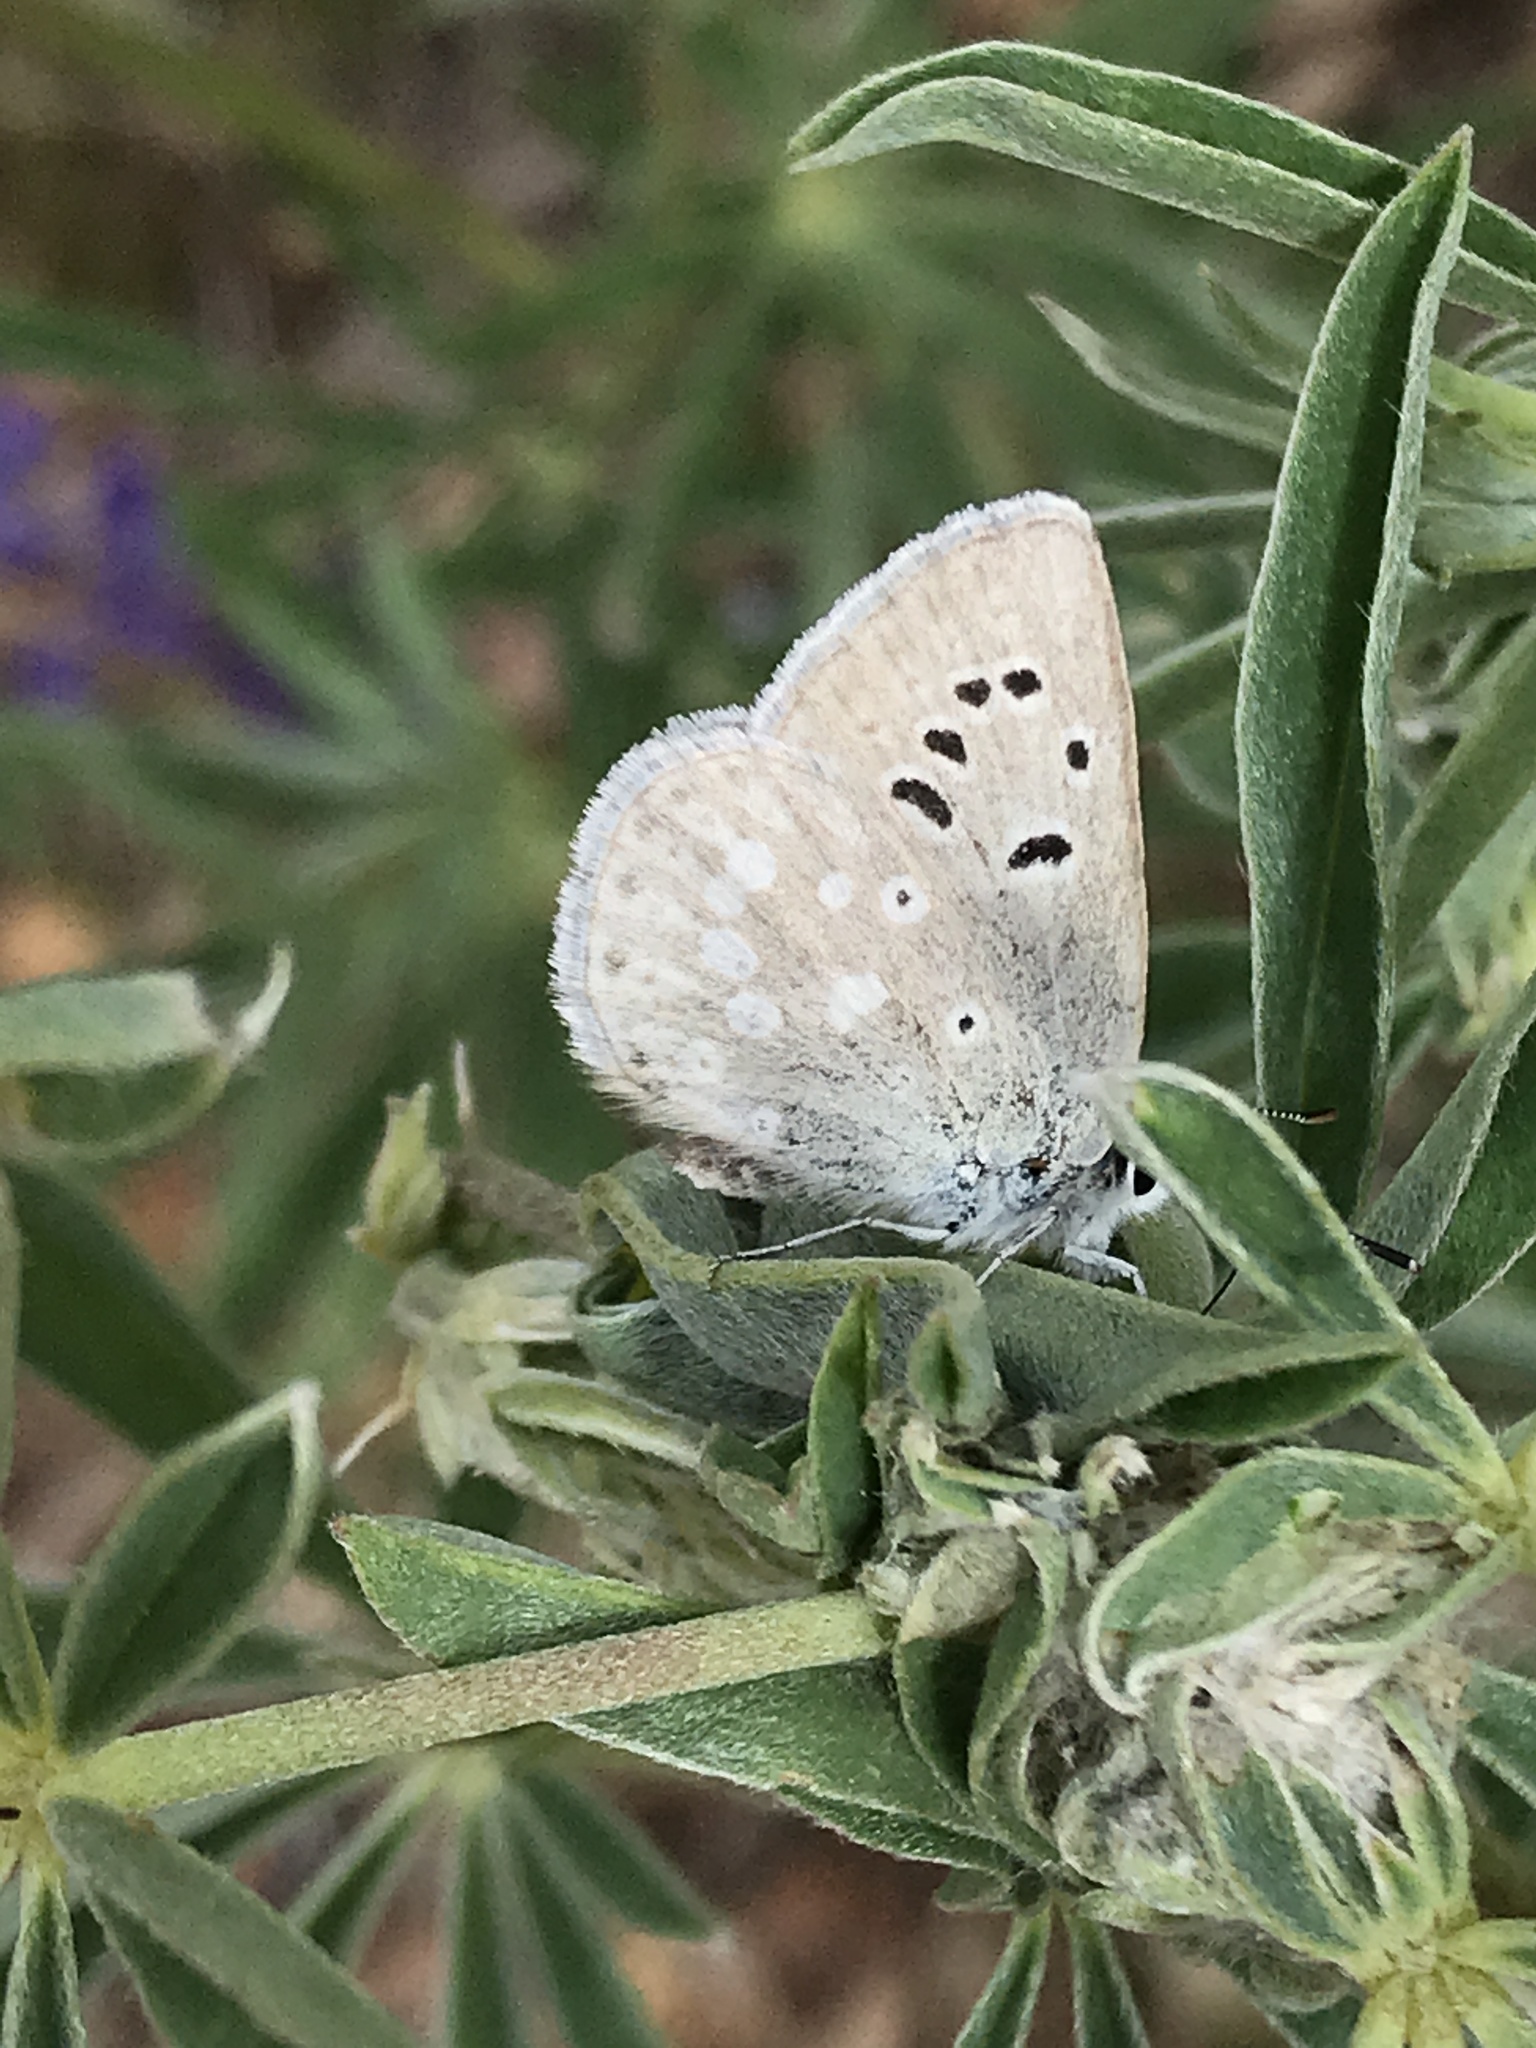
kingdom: Animalia
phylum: Arthropoda
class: Insecta
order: Lepidoptera
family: Lycaenidae
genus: Icaricia
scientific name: Icaricia icarioides
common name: Boisduval's blue
